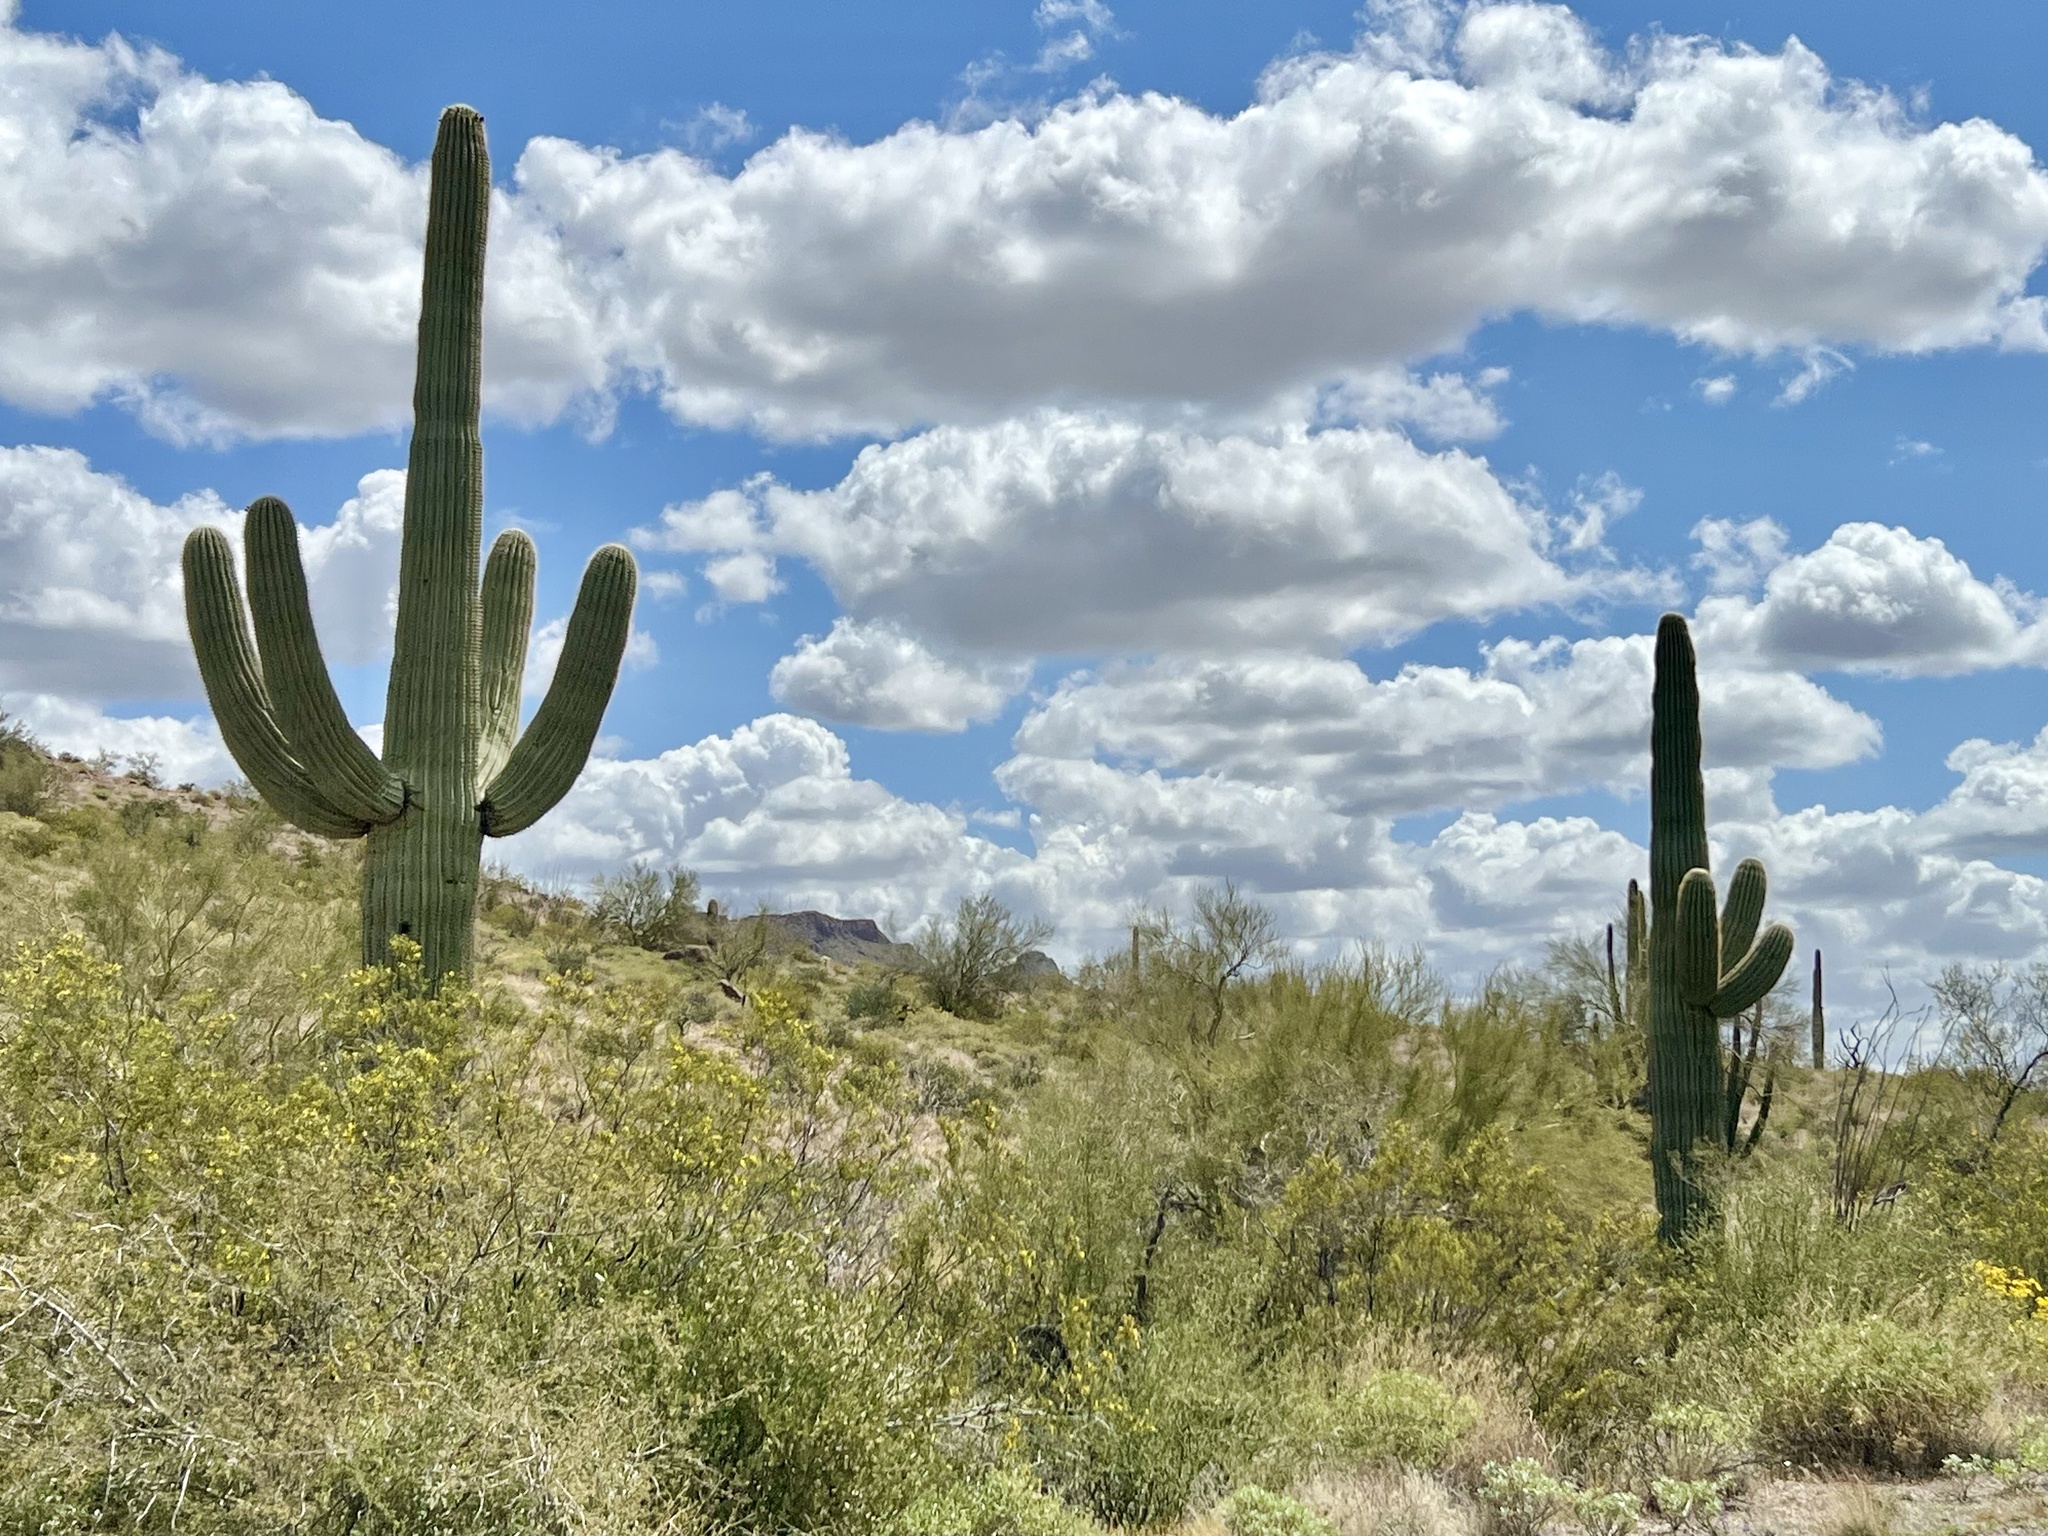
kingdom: Plantae
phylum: Tracheophyta
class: Magnoliopsida
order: Caryophyllales
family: Cactaceae
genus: Carnegiea
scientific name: Carnegiea gigantea
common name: Saguaro
